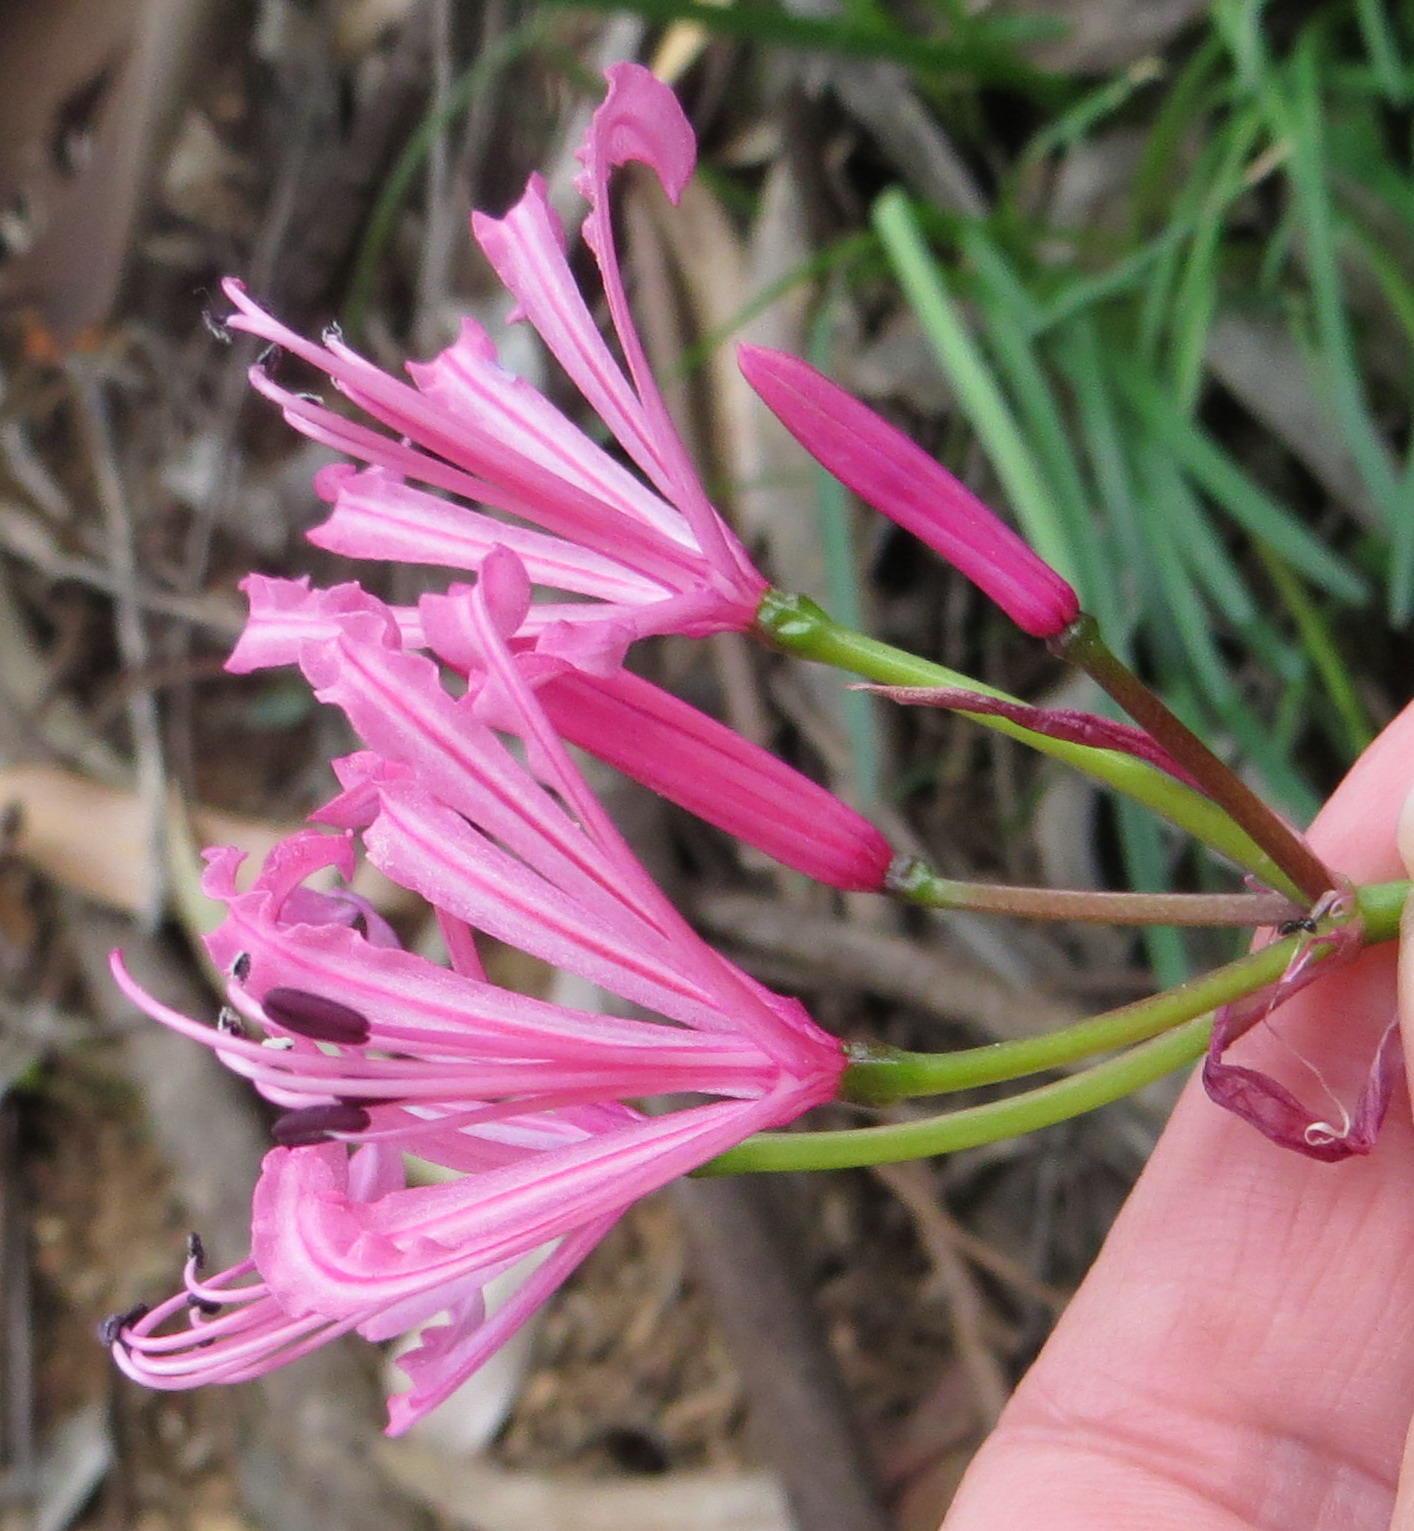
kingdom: Plantae
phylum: Tracheophyta
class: Liliopsida
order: Asparagales
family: Amaryllidaceae
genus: Nerine
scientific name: Nerine humilis
